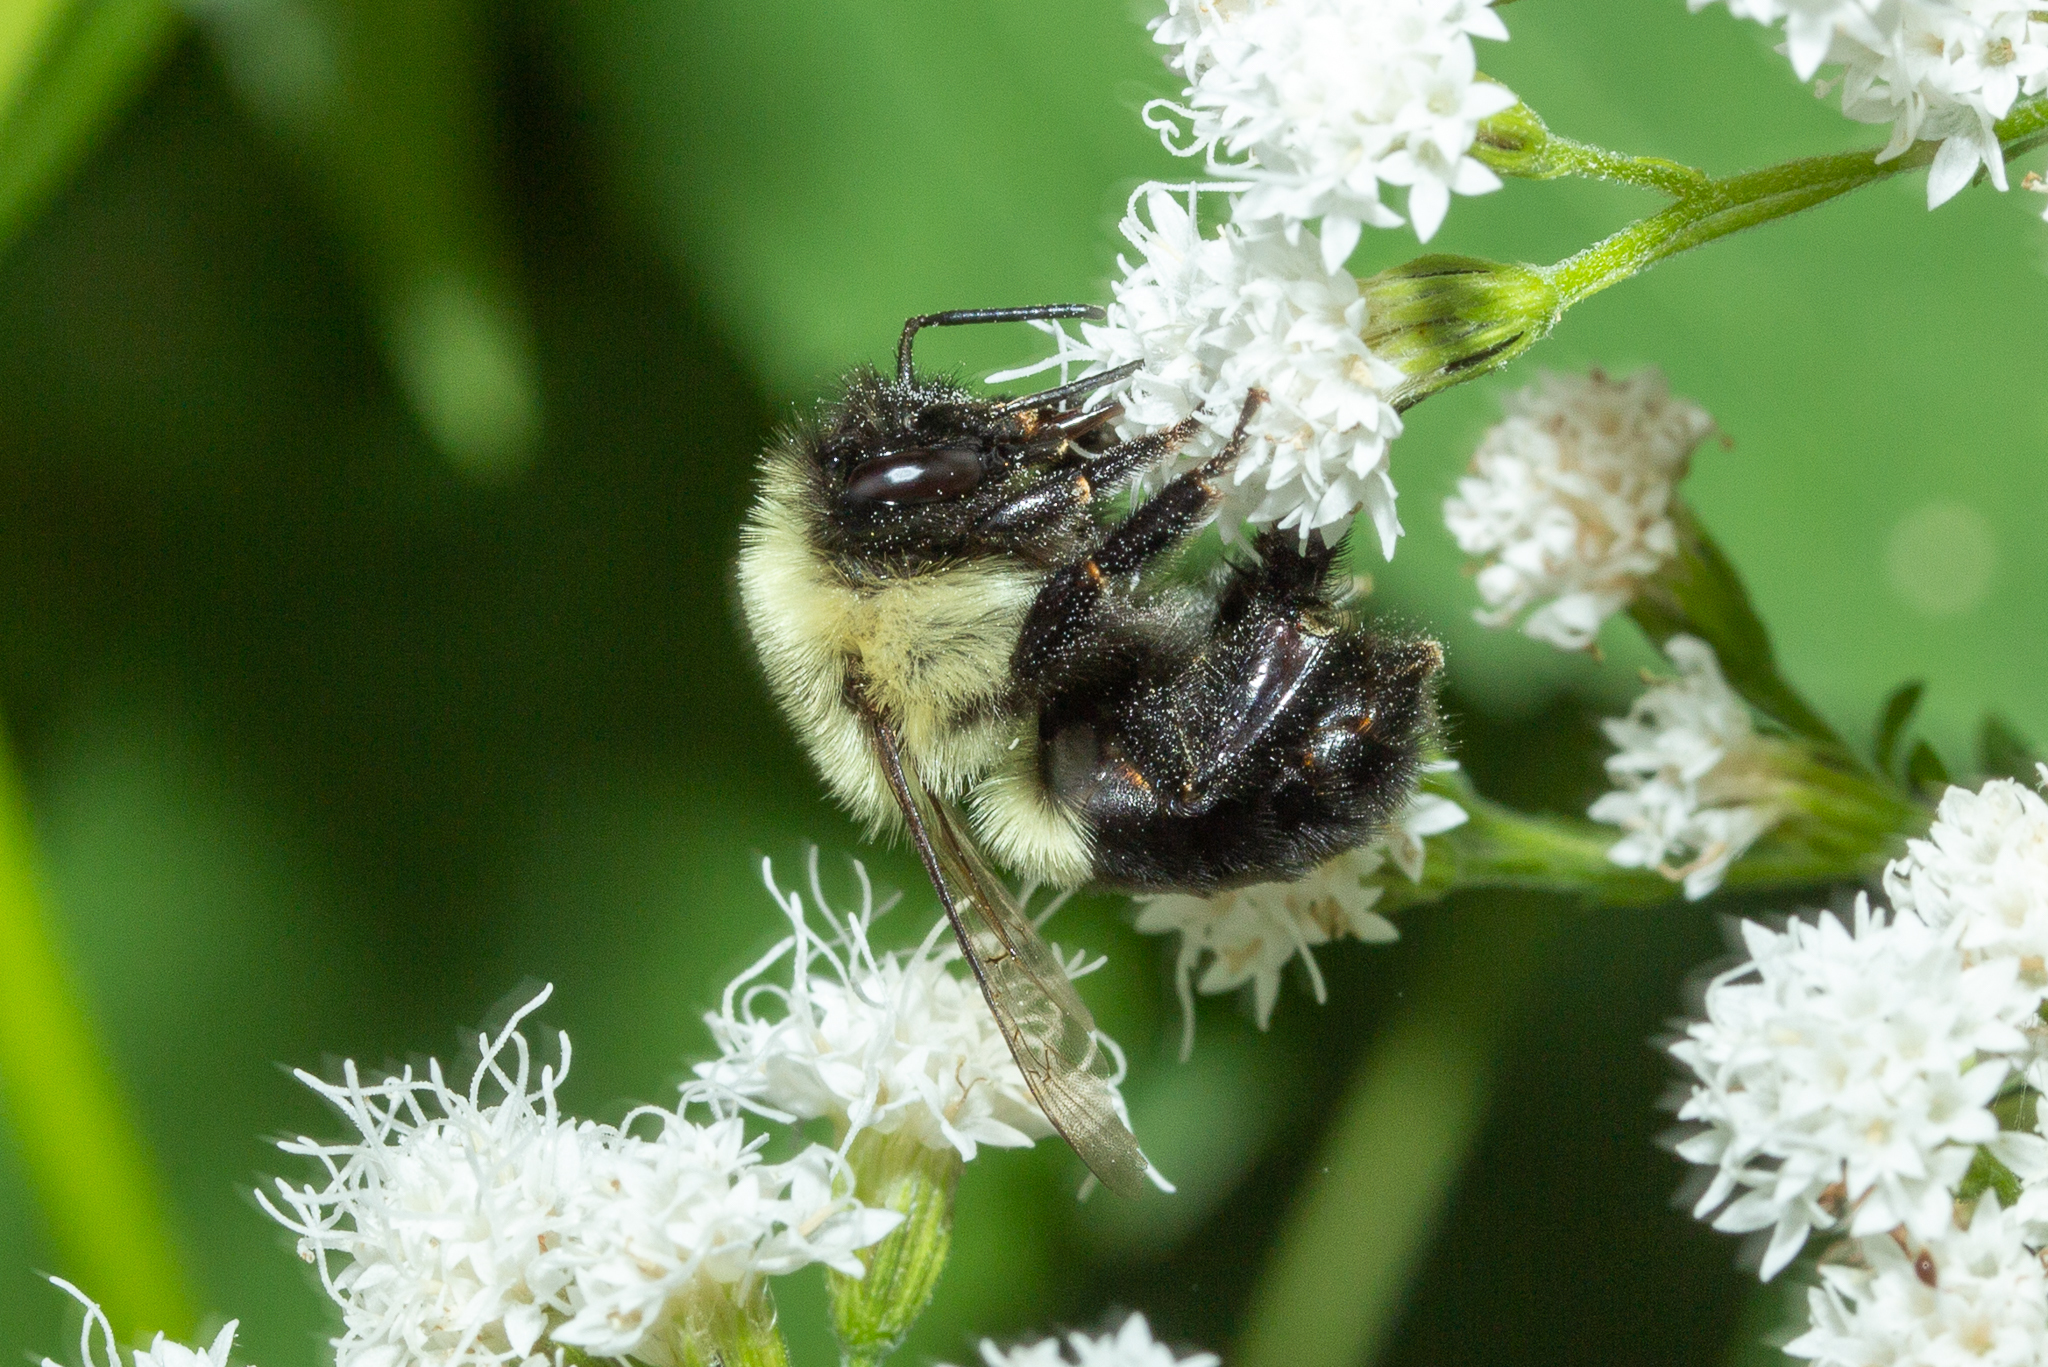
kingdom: Animalia
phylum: Arthropoda
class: Insecta
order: Hymenoptera
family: Apidae
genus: Bombus
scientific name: Bombus impatiens
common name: Common eastern bumble bee
